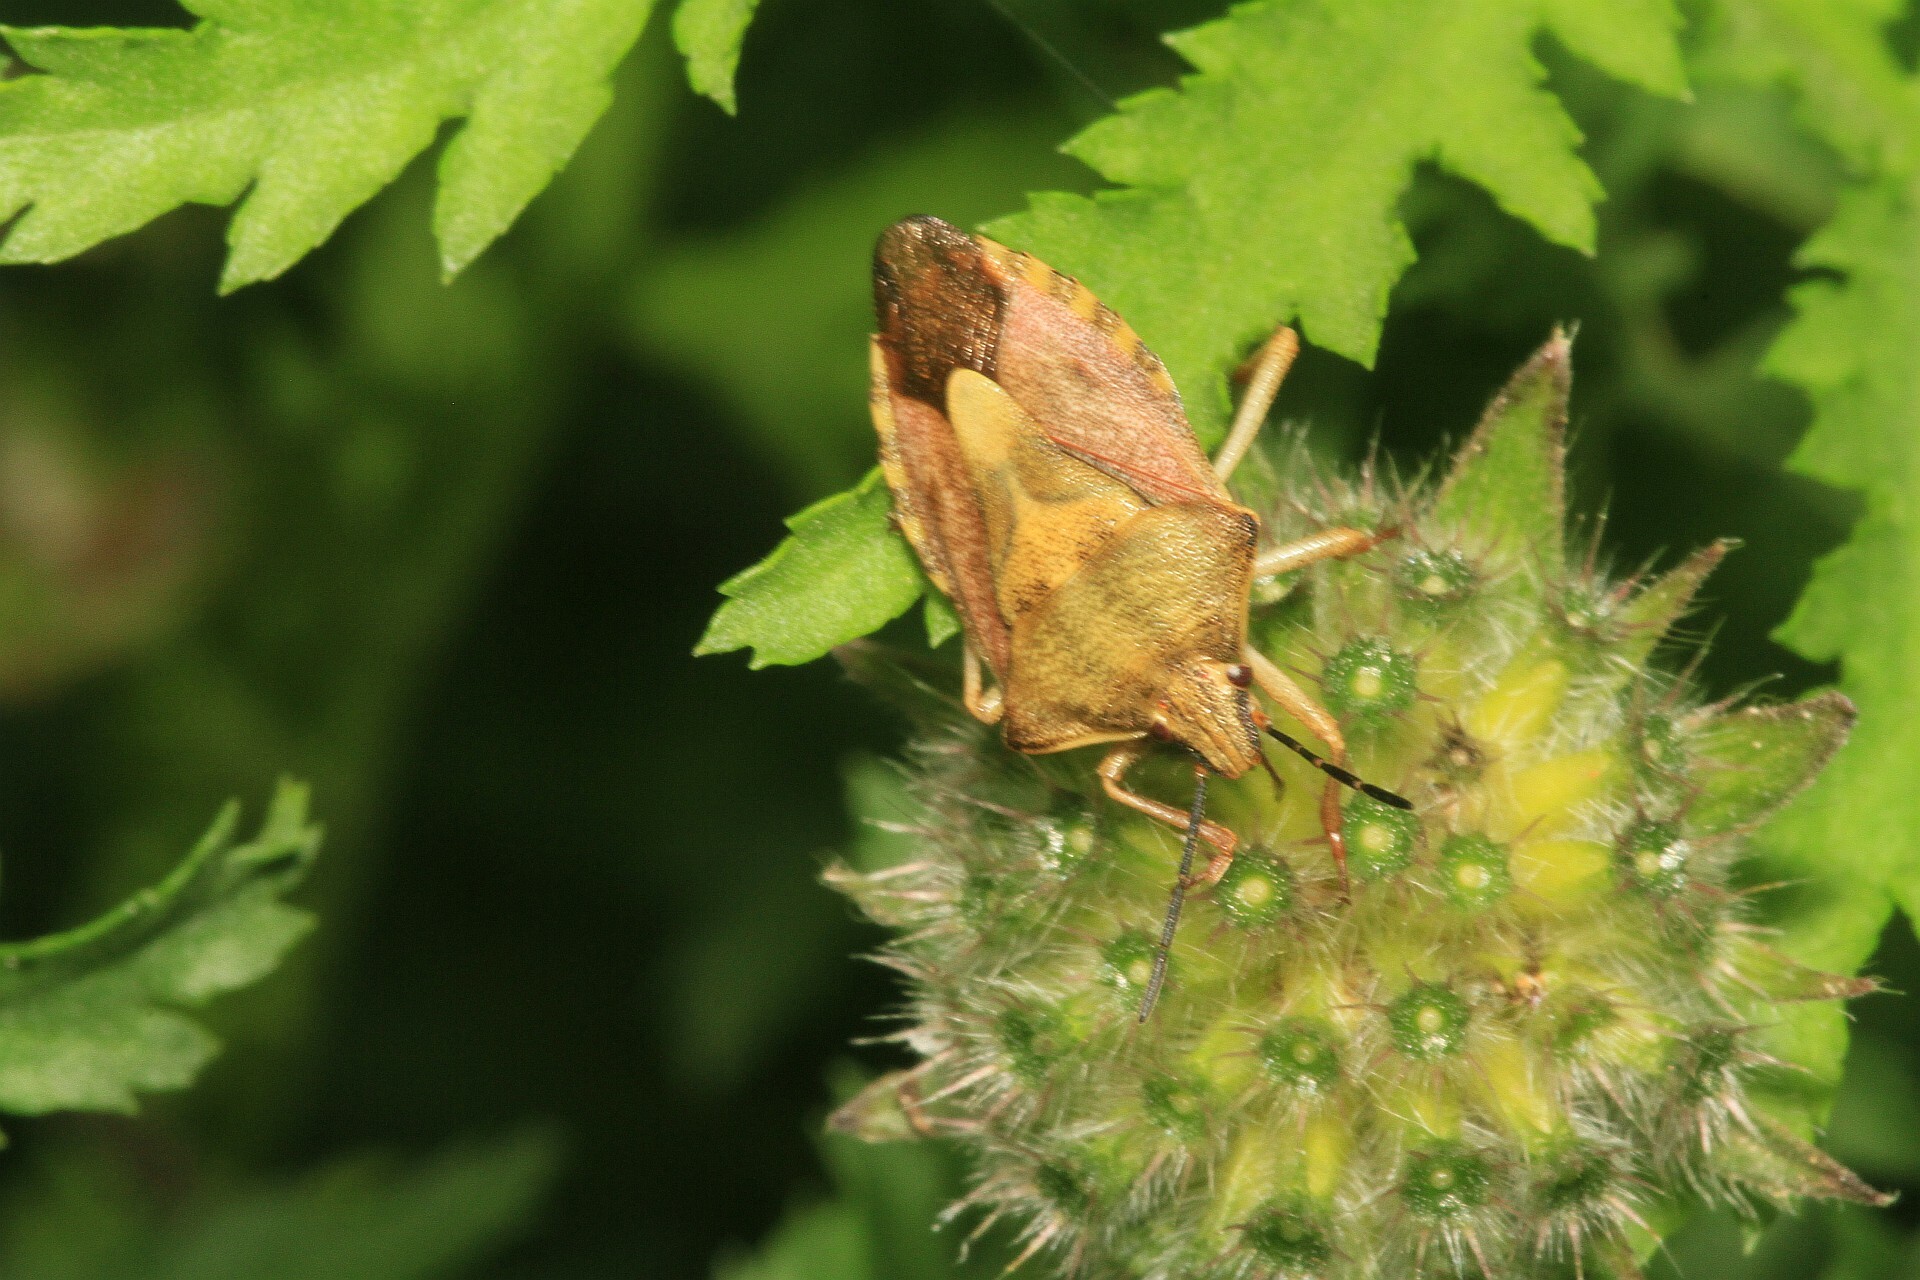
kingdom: Animalia
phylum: Arthropoda
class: Insecta
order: Hemiptera
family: Pentatomidae
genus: Carpocoris
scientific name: Carpocoris purpureipennis
